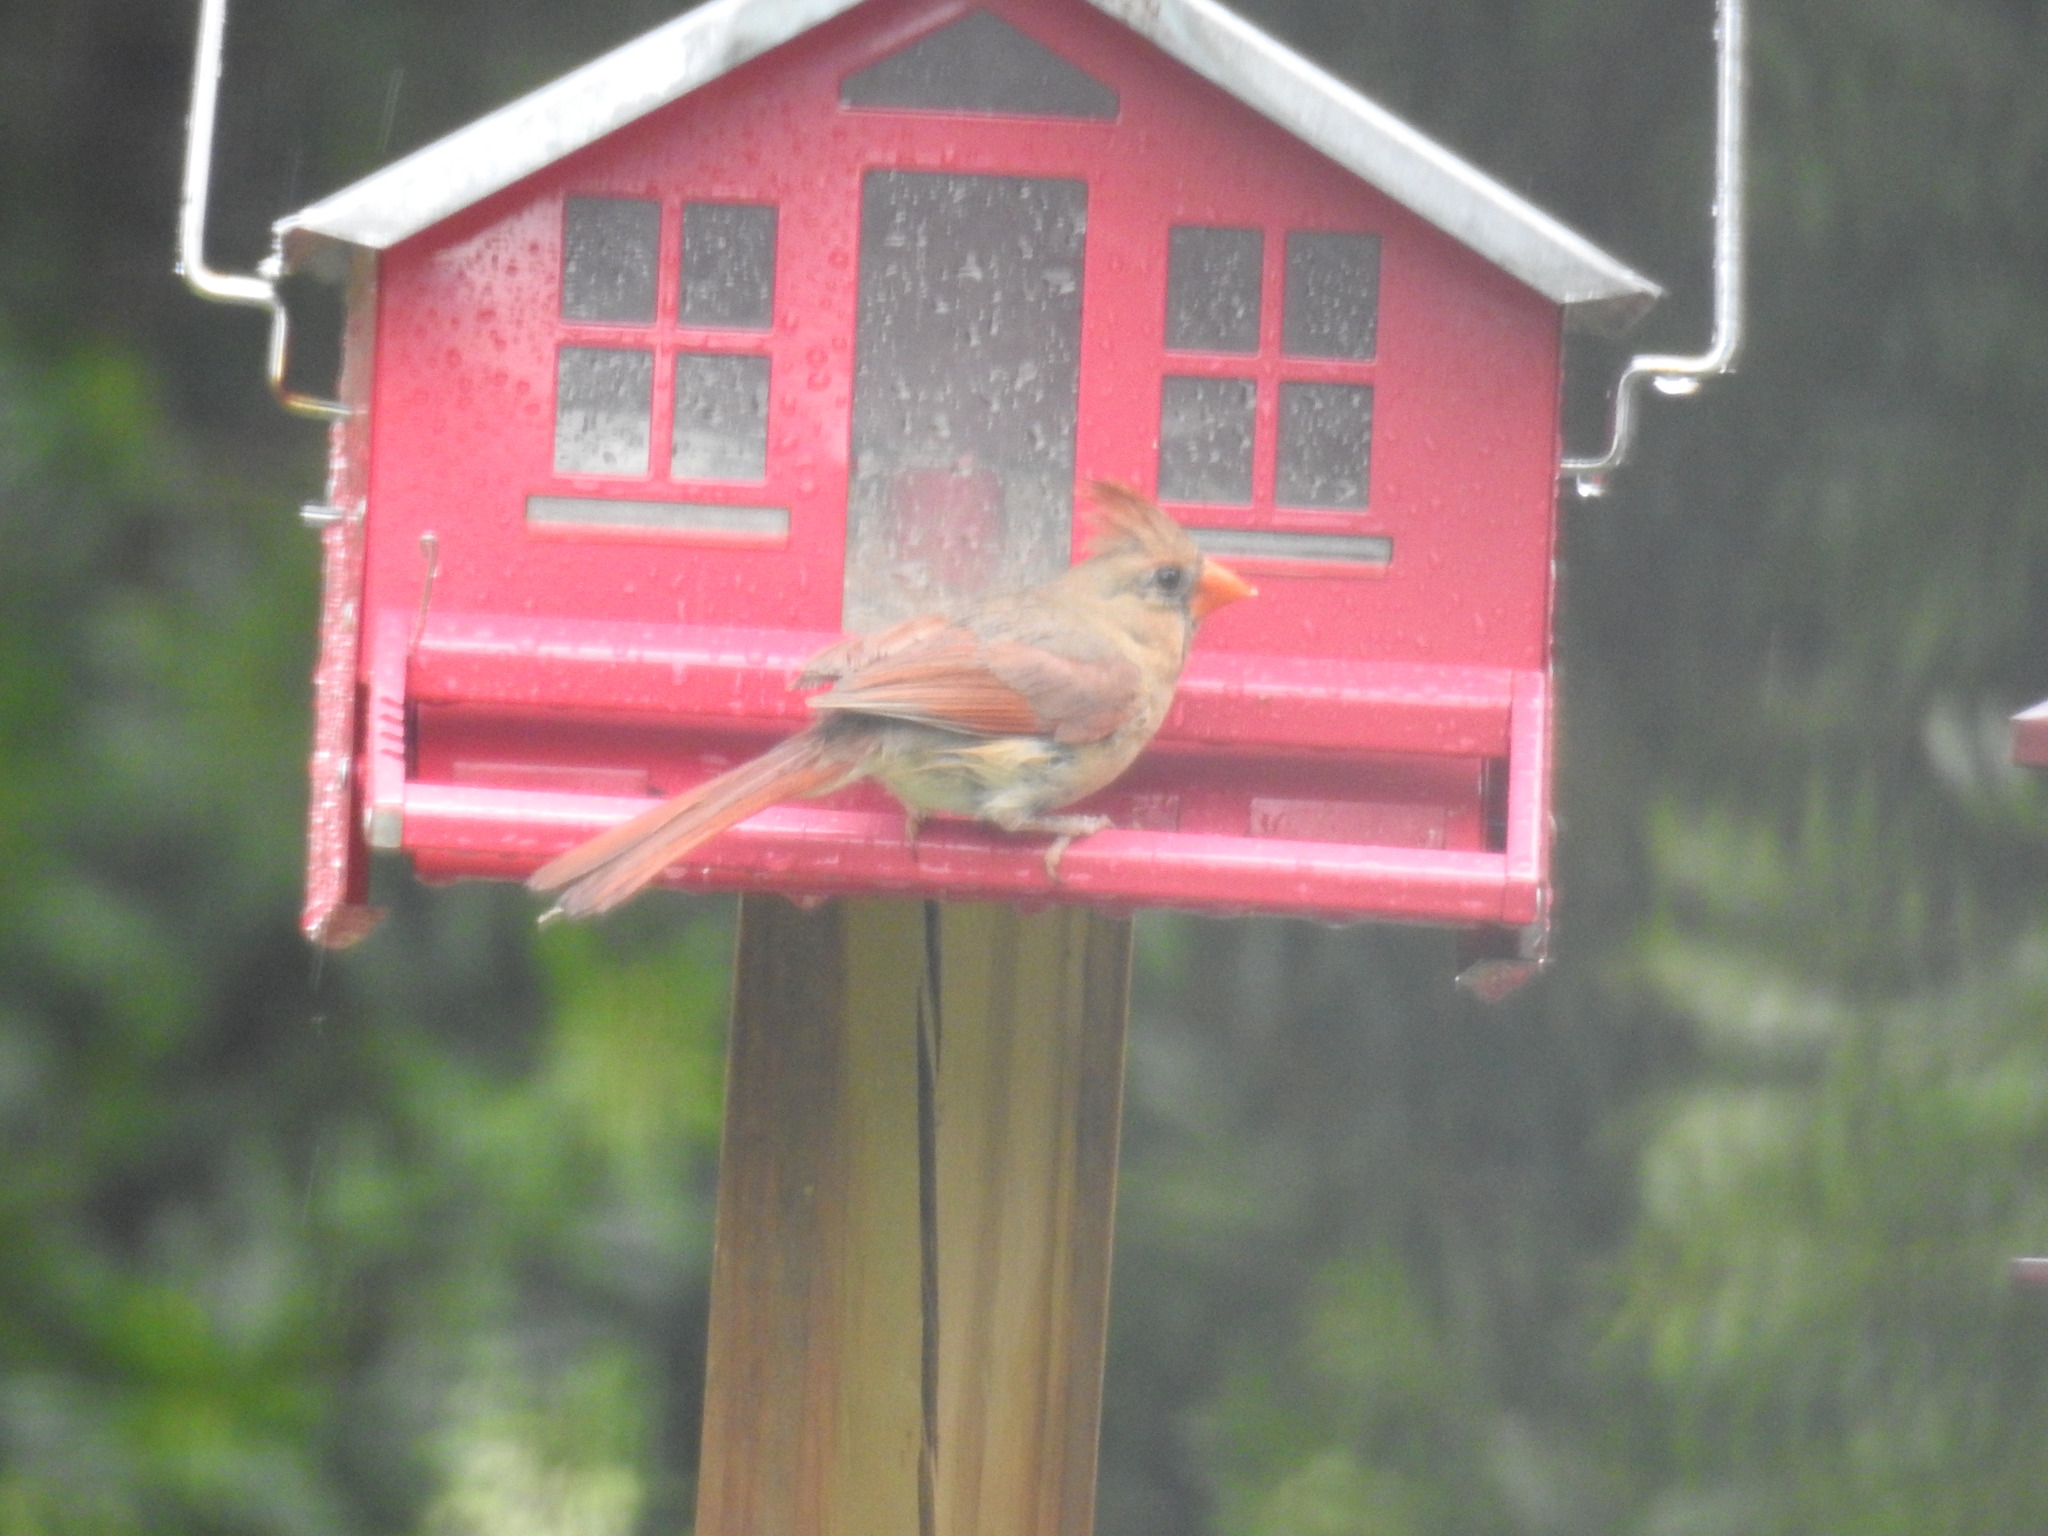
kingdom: Animalia
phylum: Chordata
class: Aves
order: Passeriformes
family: Cardinalidae
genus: Cardinalis
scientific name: Cardinalis cardinalis
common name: Northern cardinal
